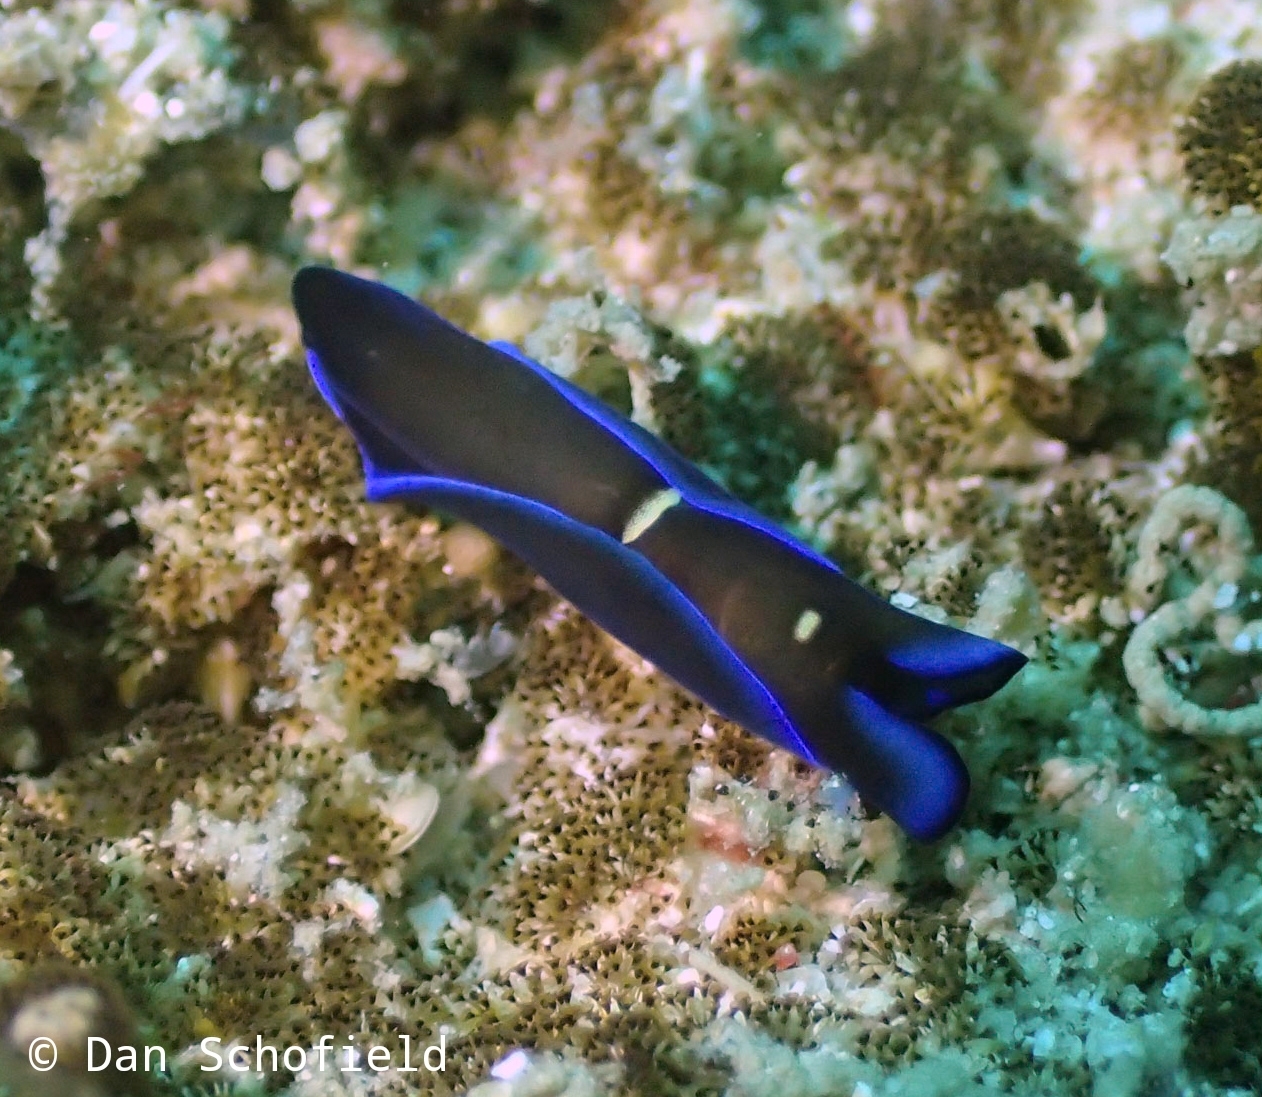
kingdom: Animalia
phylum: Mollusca
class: Gastropoda
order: Cephalaspidea
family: Aglajidae
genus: Tubulophilinopsis
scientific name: Tubulophilinopsis gardineri
